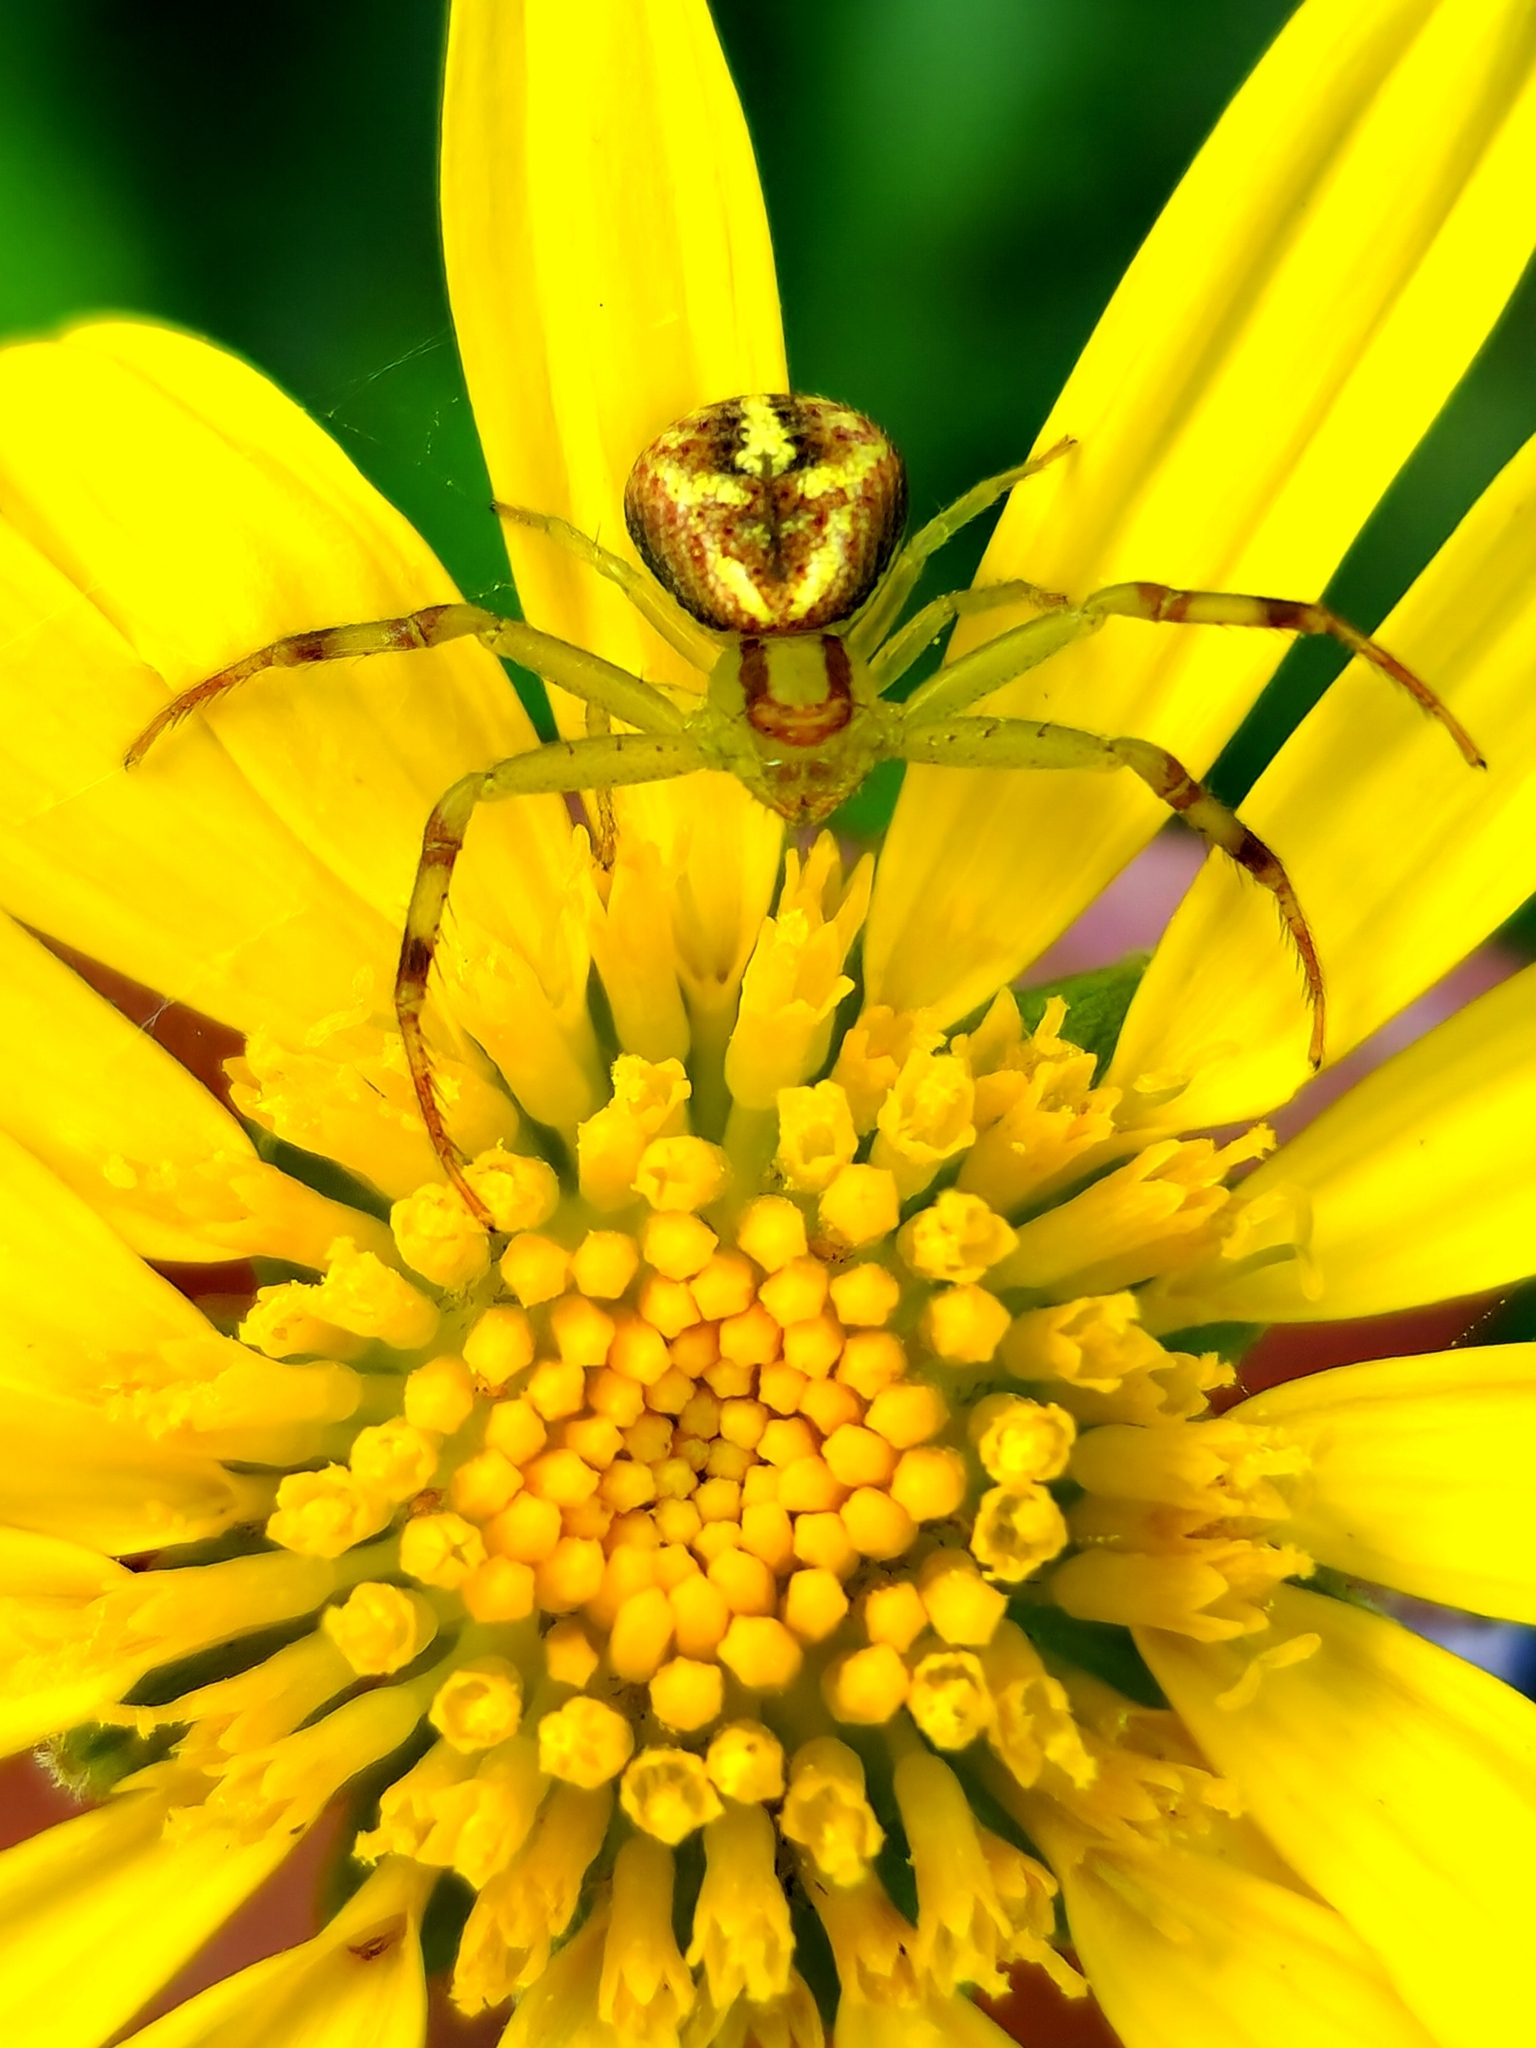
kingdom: Animalia
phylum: Arthropoda
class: Arachnida
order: Araneae
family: Thomisidae
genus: Misumenops
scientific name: Misumenops
